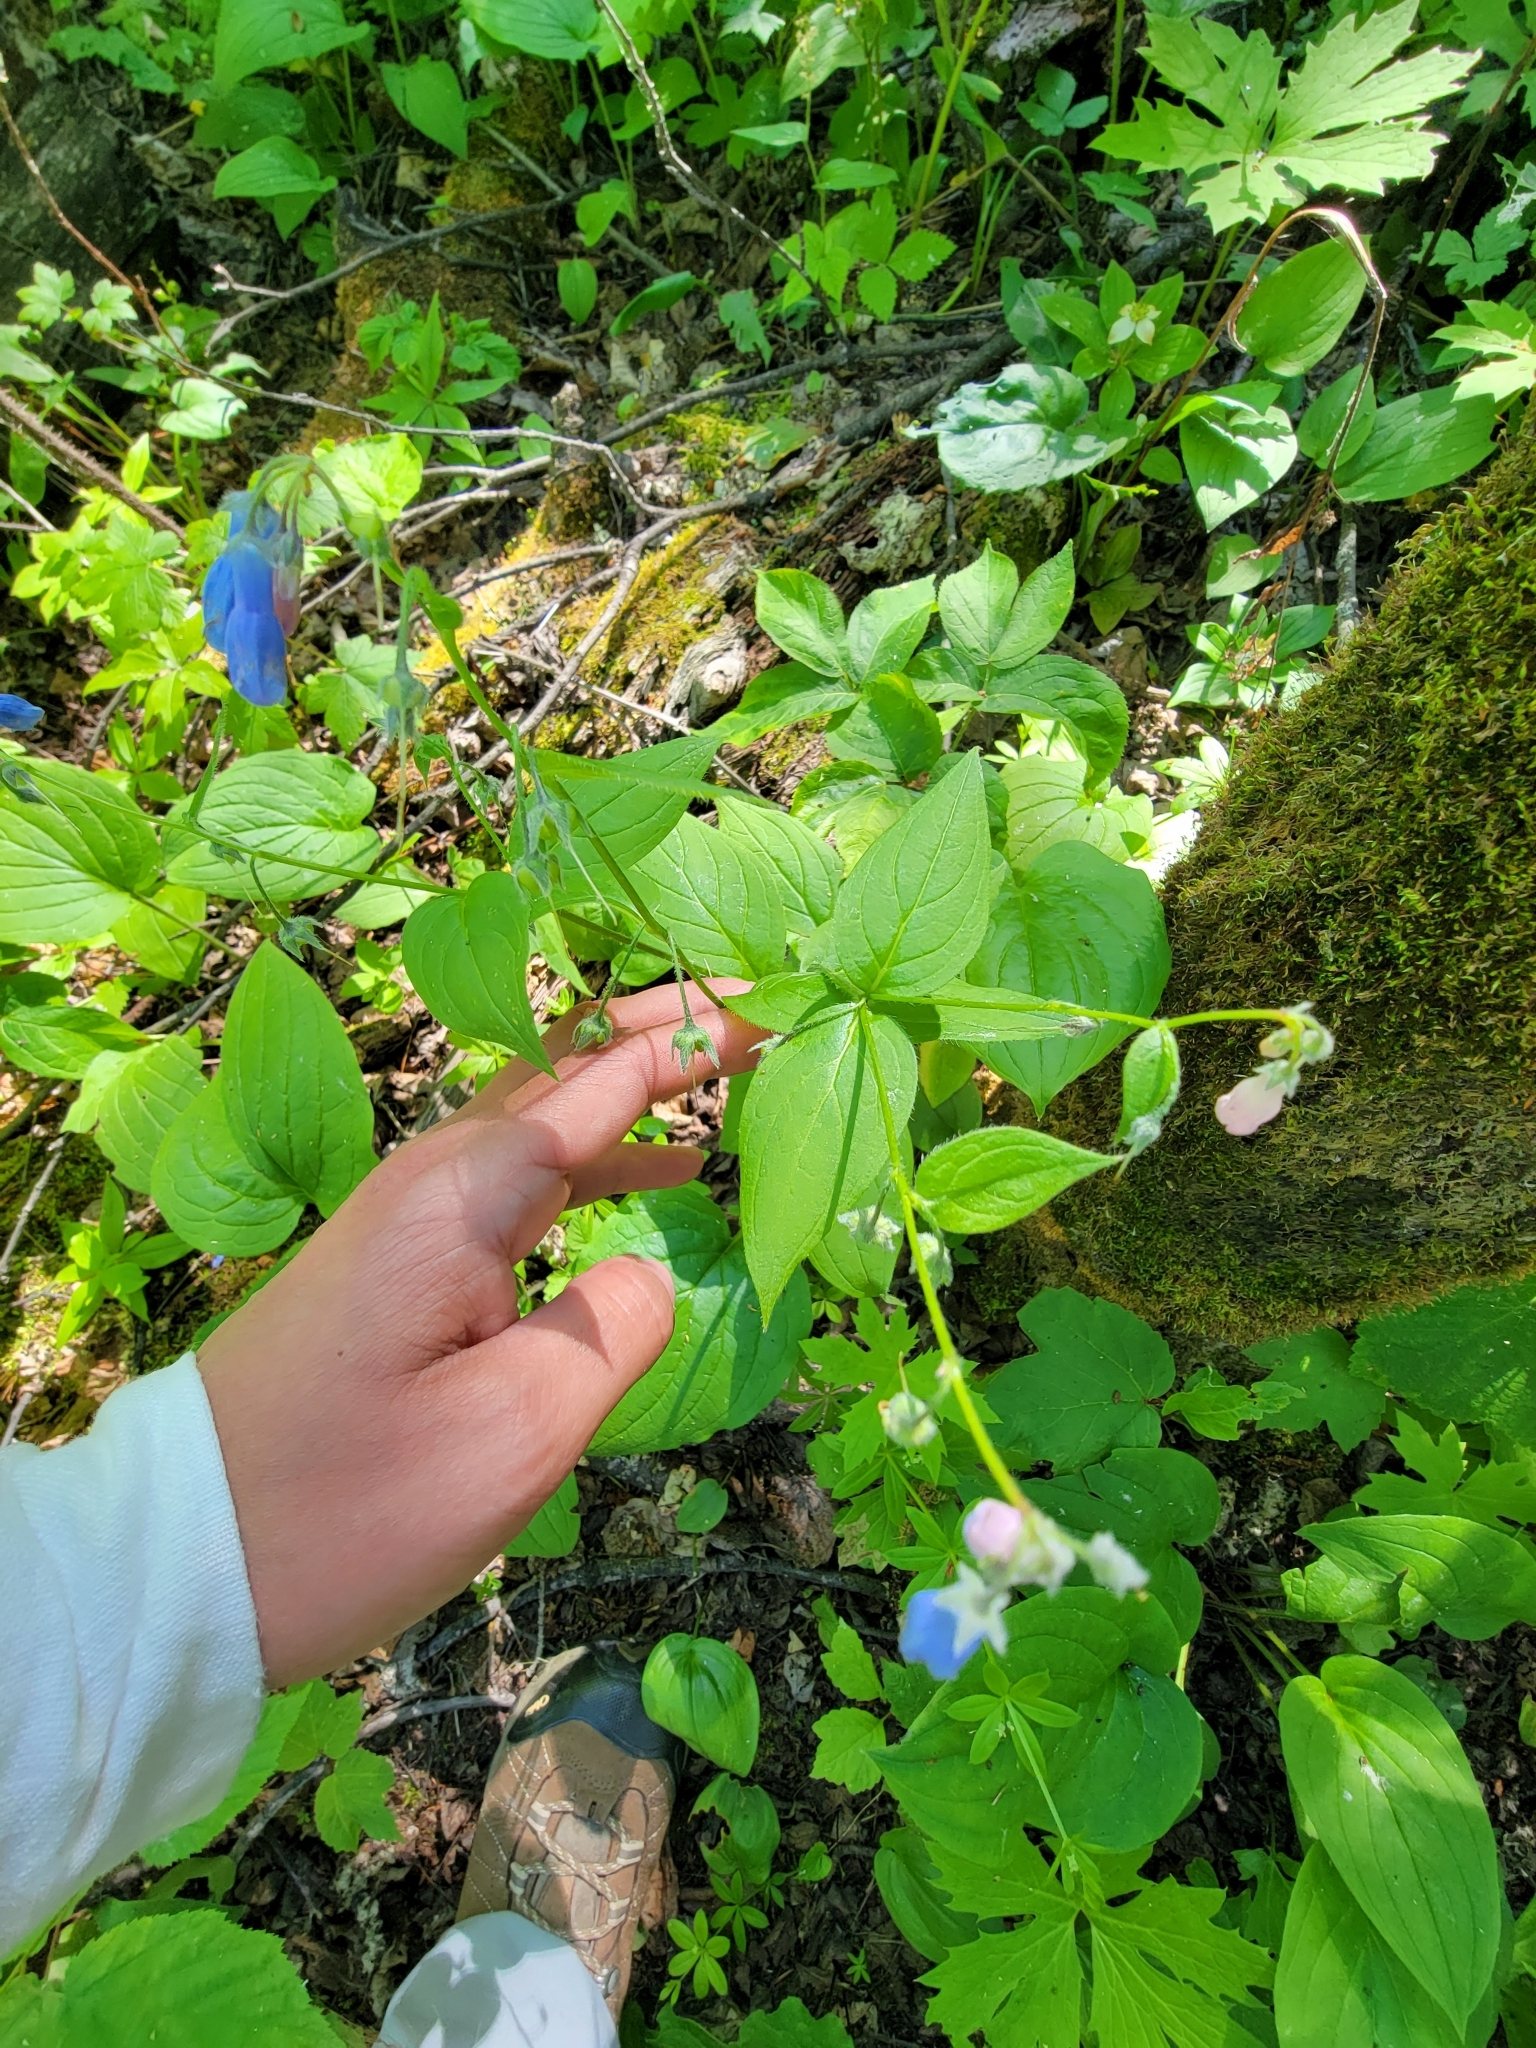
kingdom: Plantae
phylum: Tracheophyta
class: Magnoliopsida
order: Boraginales
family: Boraginaceae
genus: Mertensia
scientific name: Mertensia paniculata
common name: Panicled bluebells
